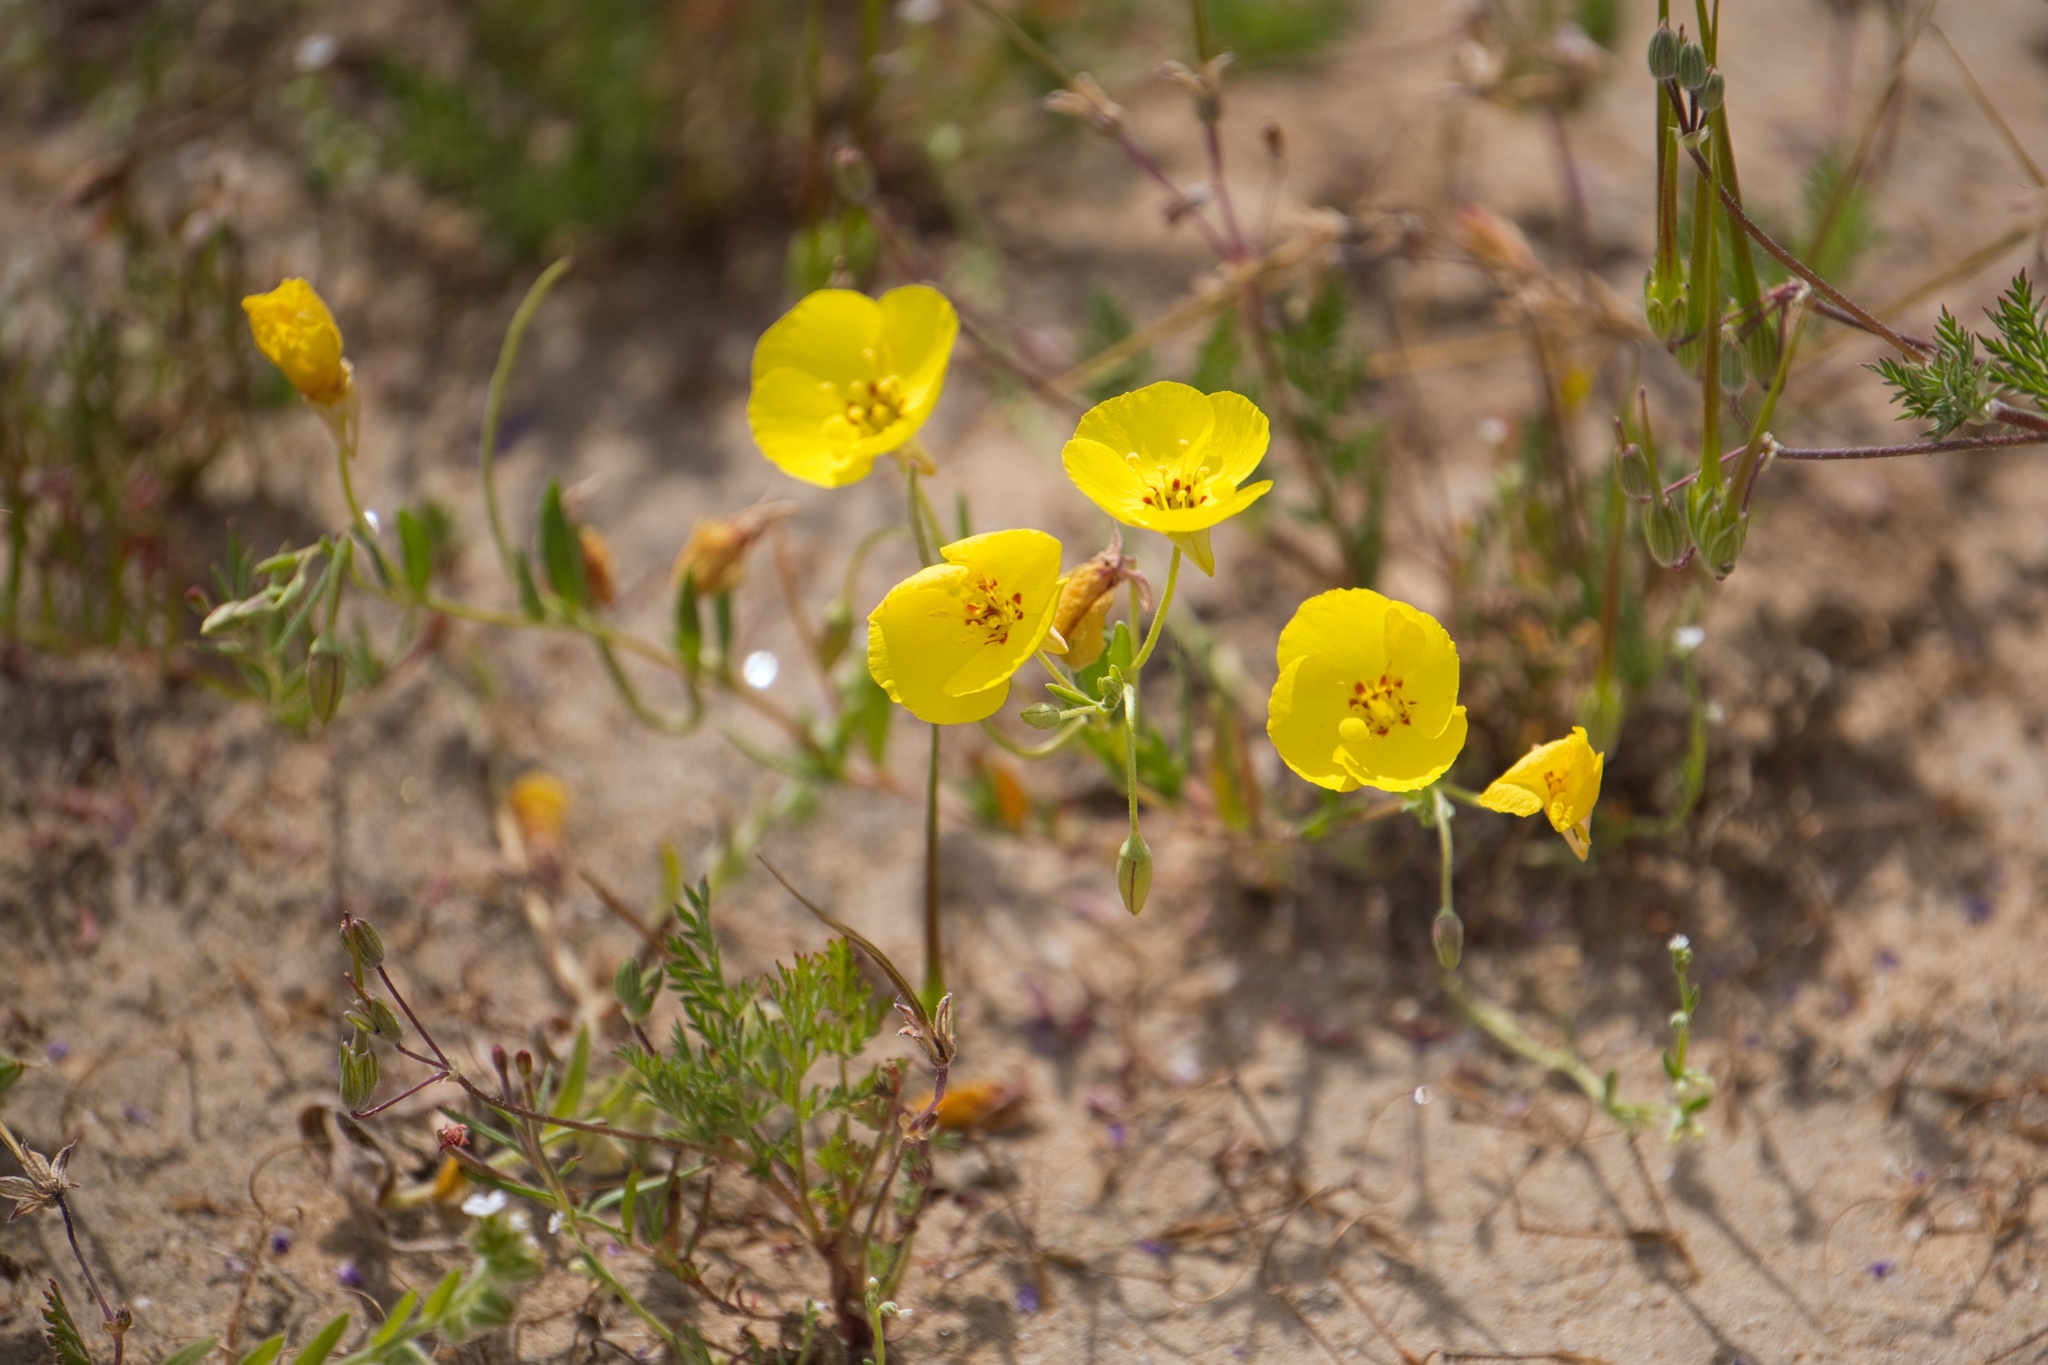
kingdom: Plantae
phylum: Tracheophyta
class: Magnoliopsida
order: Myrtales
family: Onagraceae
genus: Camissonia
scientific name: Camissonia campestris
